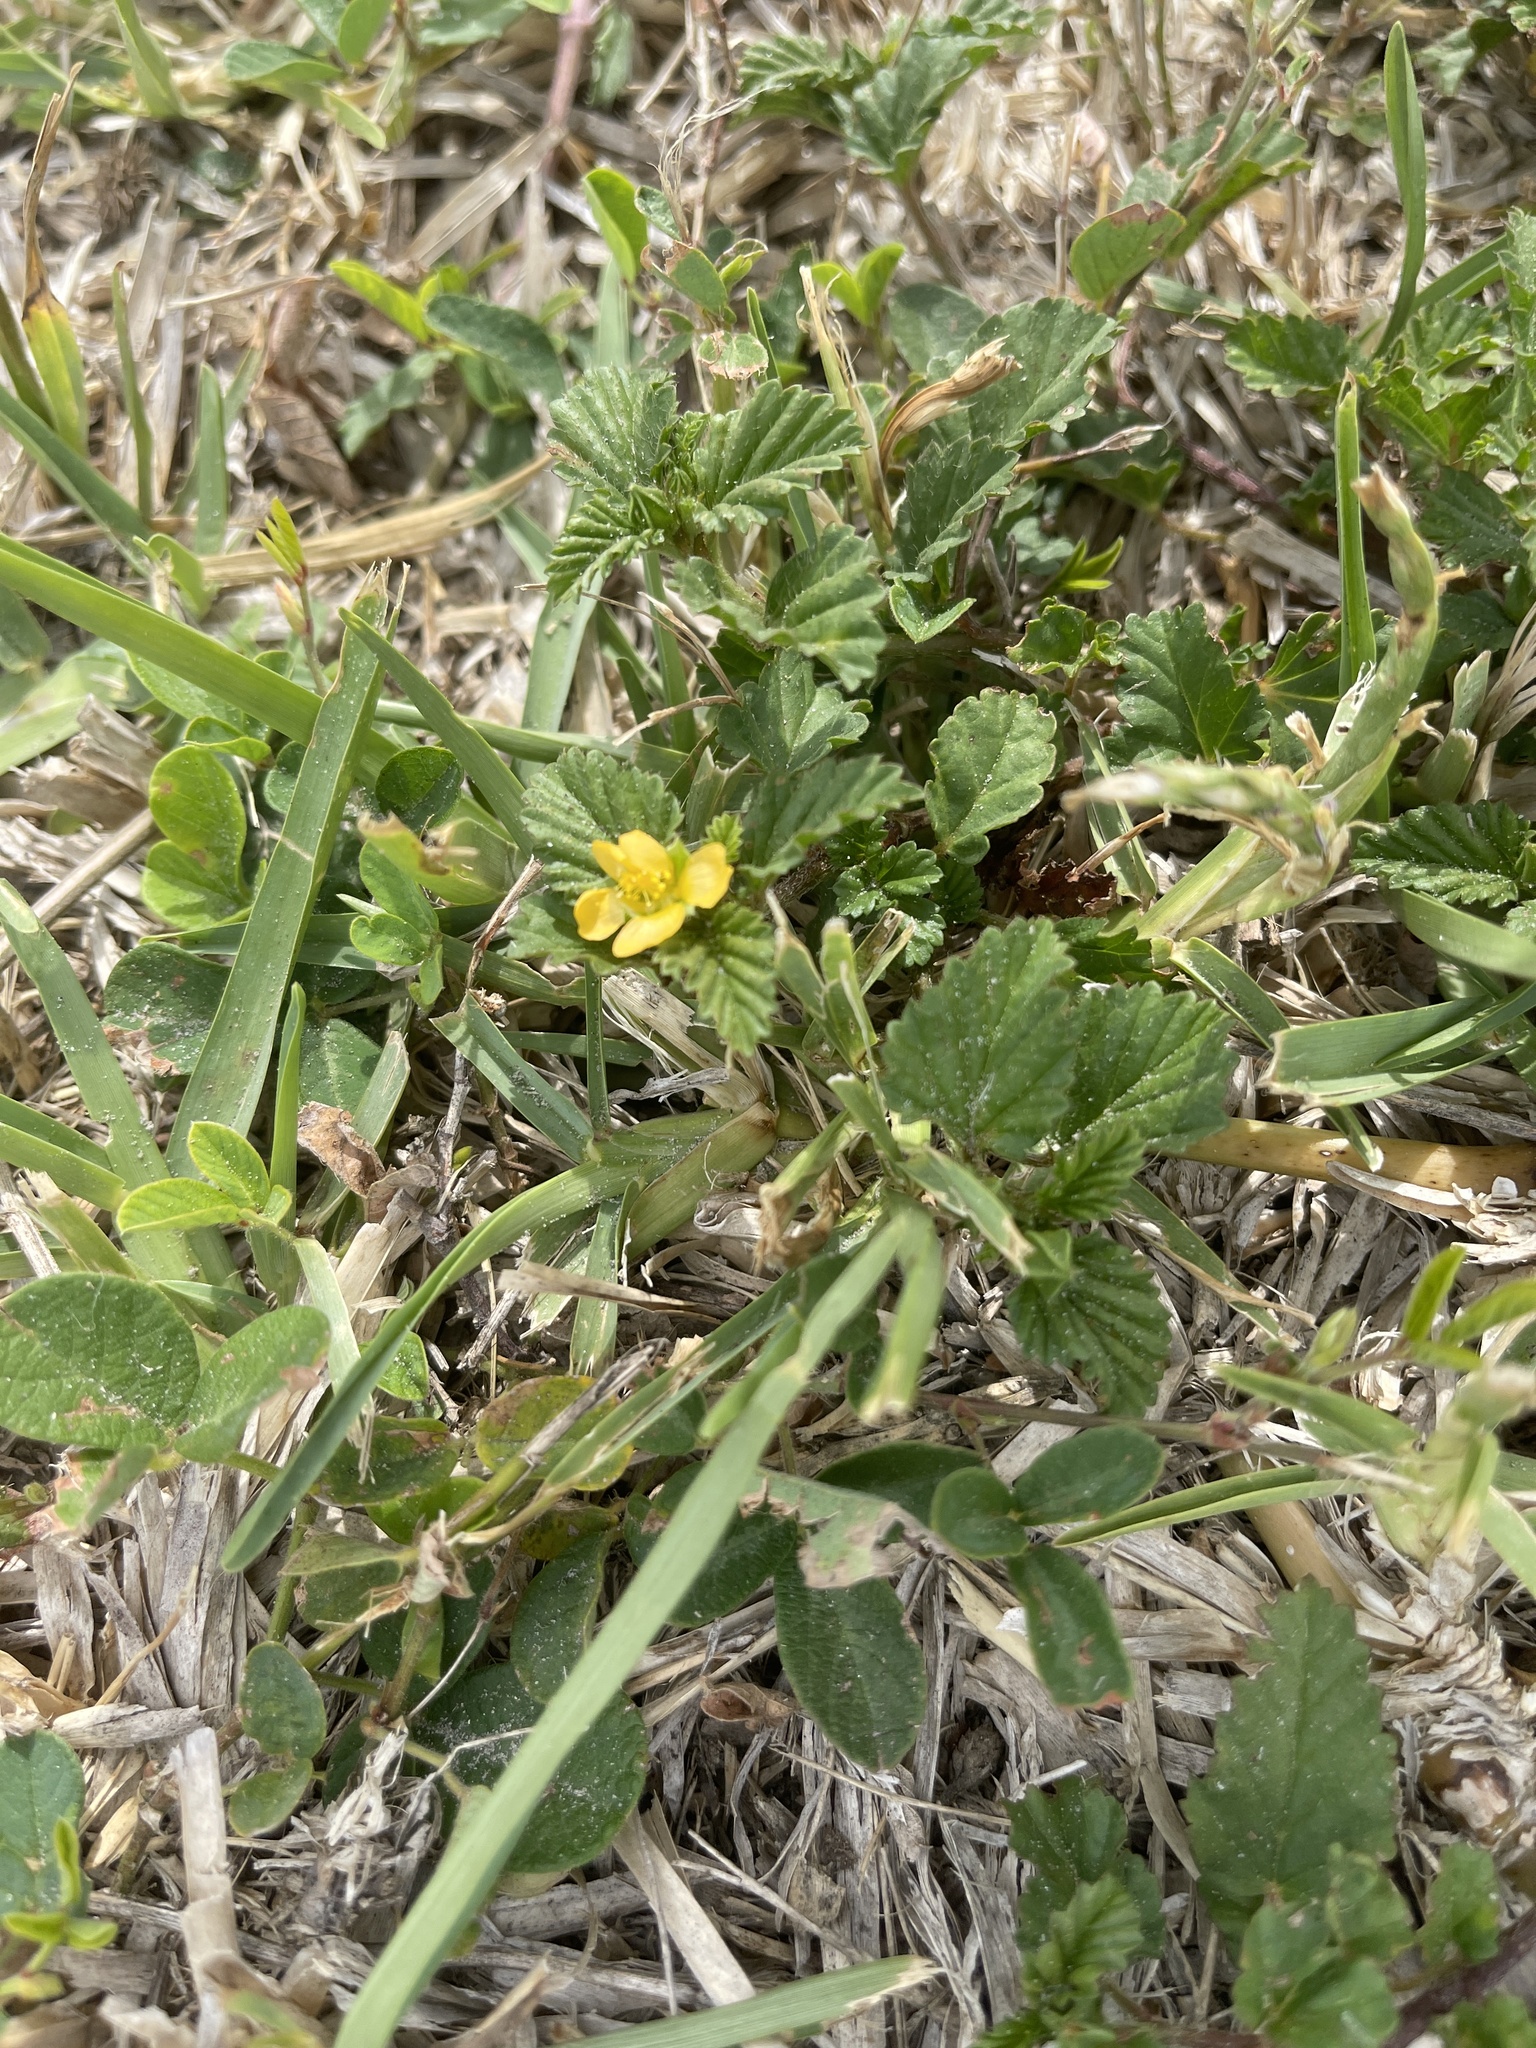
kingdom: Plantae
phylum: Tracheophyta
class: Magnoliopsida
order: Malvales
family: Malvaceae
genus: Malvastrum
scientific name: Malvastrum coromandelianum
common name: Threelobe false mallow
